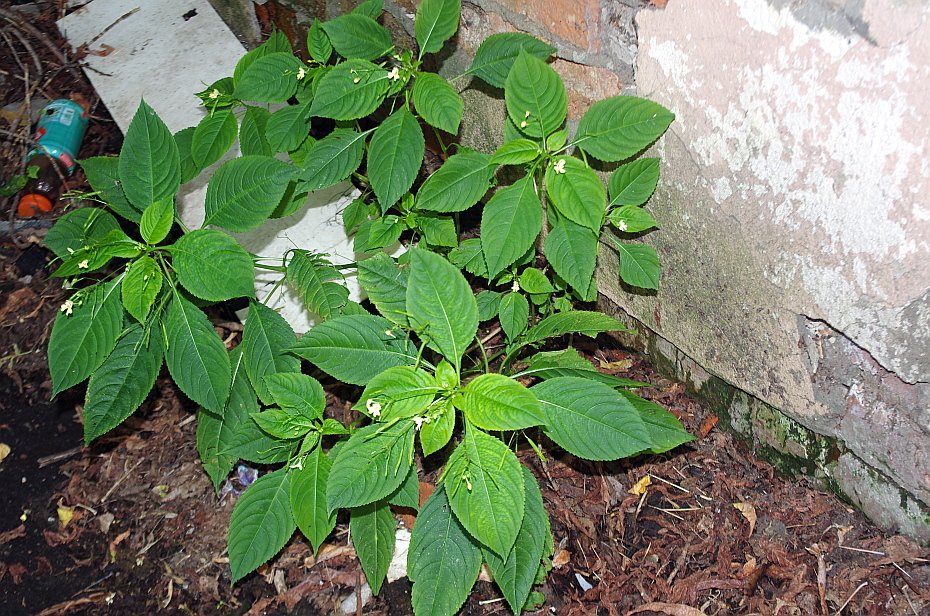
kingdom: Plantae
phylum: Tracheophyta
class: Magnoliopsida
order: Ericales
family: Balsaminaceae
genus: Impatiens
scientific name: Impatiens parviflora
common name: Small balsam
